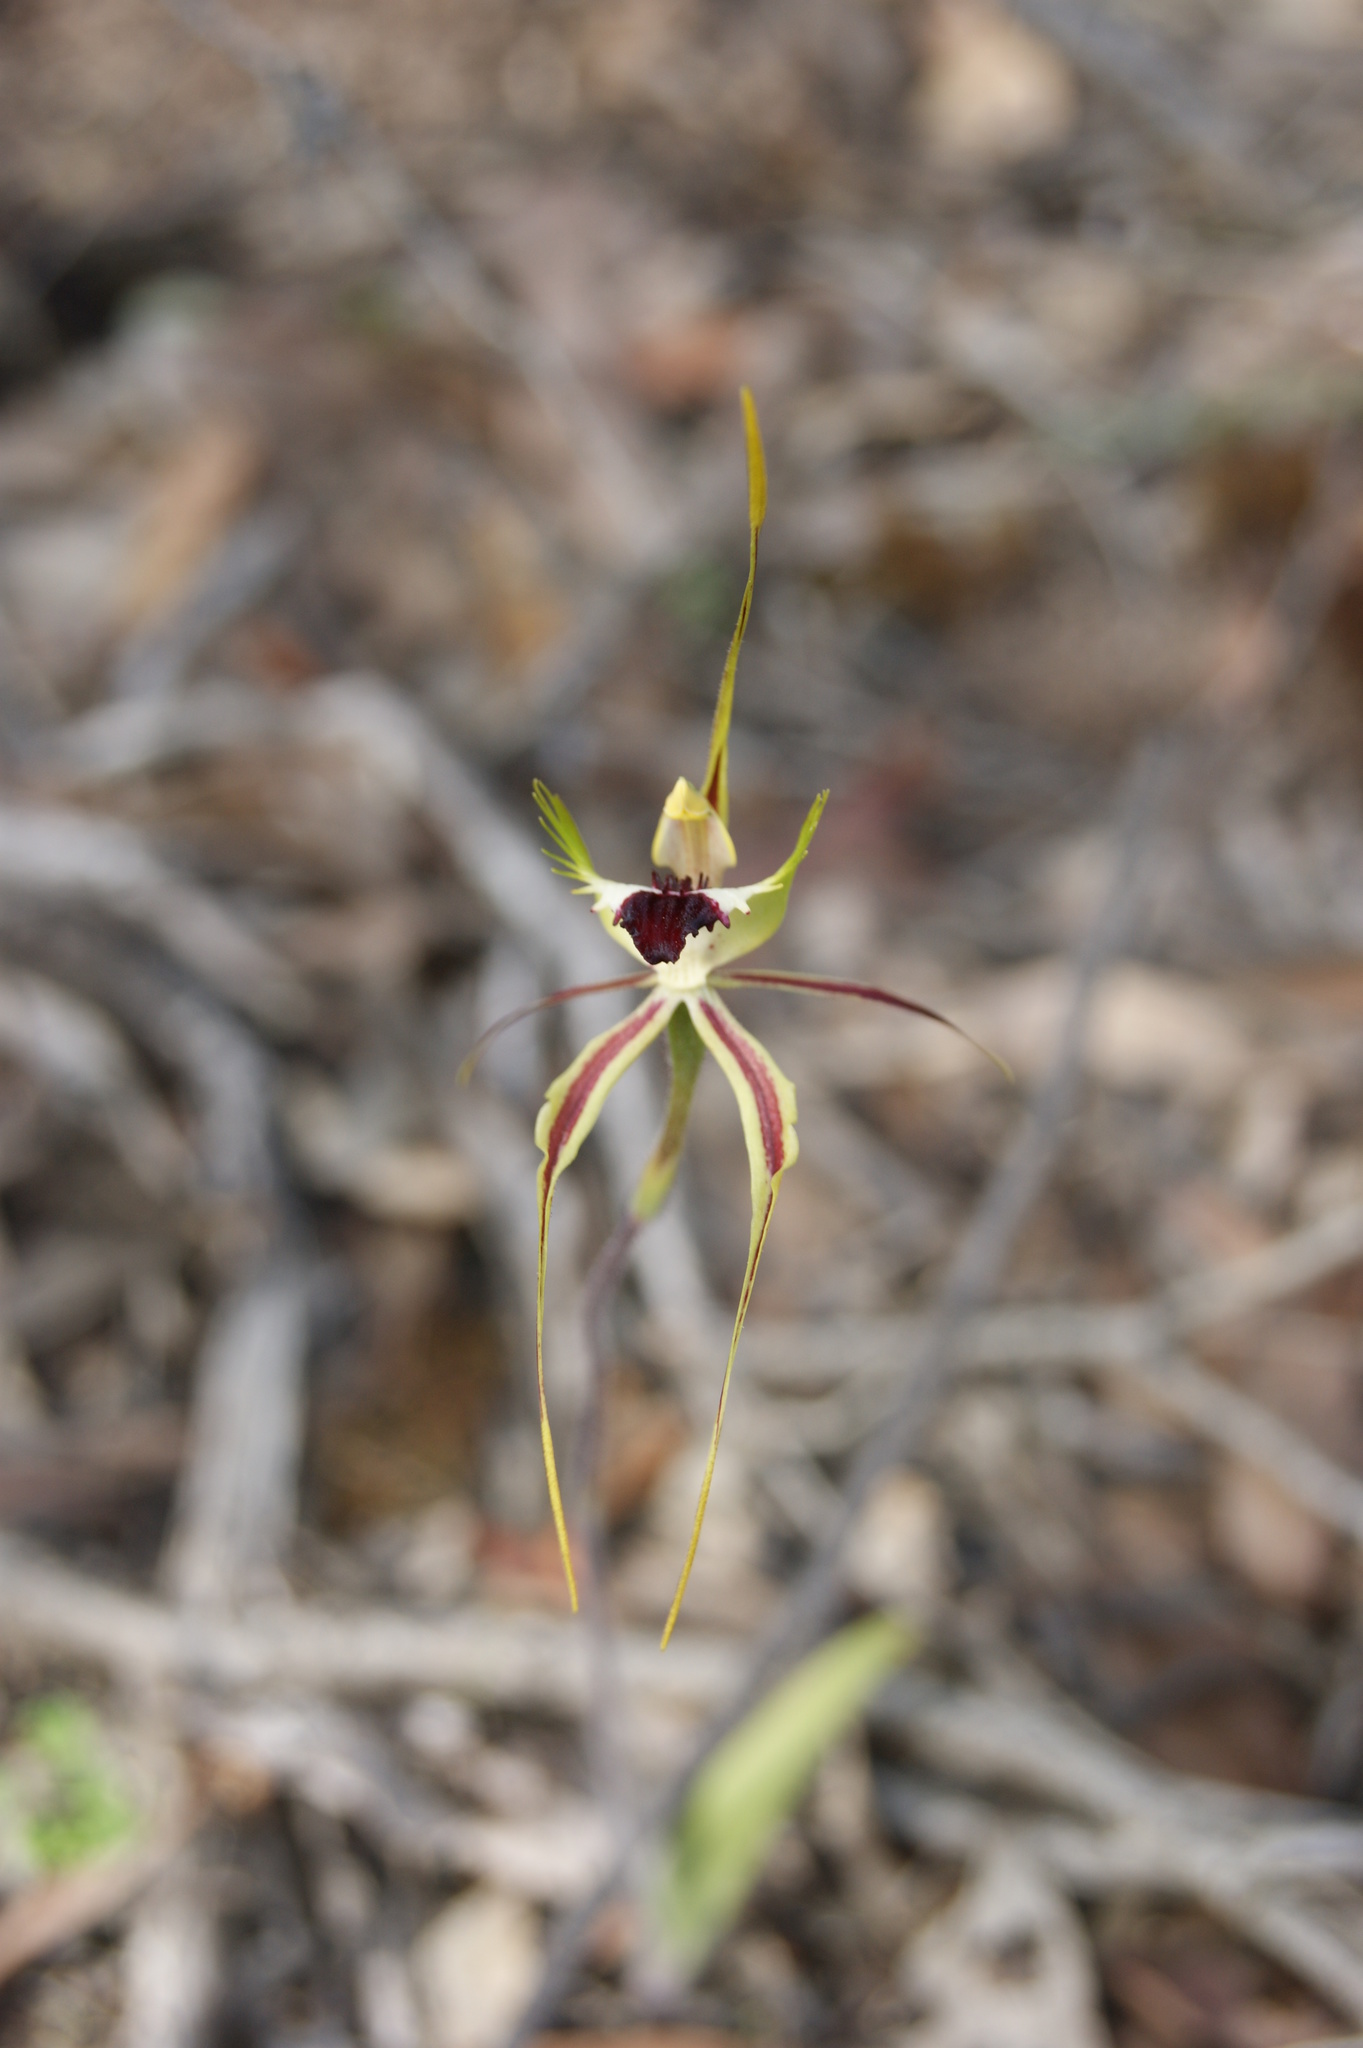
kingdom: Plantae
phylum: Tracheophyta
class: Liliopsida
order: Asparagales
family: Orchidaceae
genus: Caladenia
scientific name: Caladenia tentaculata
